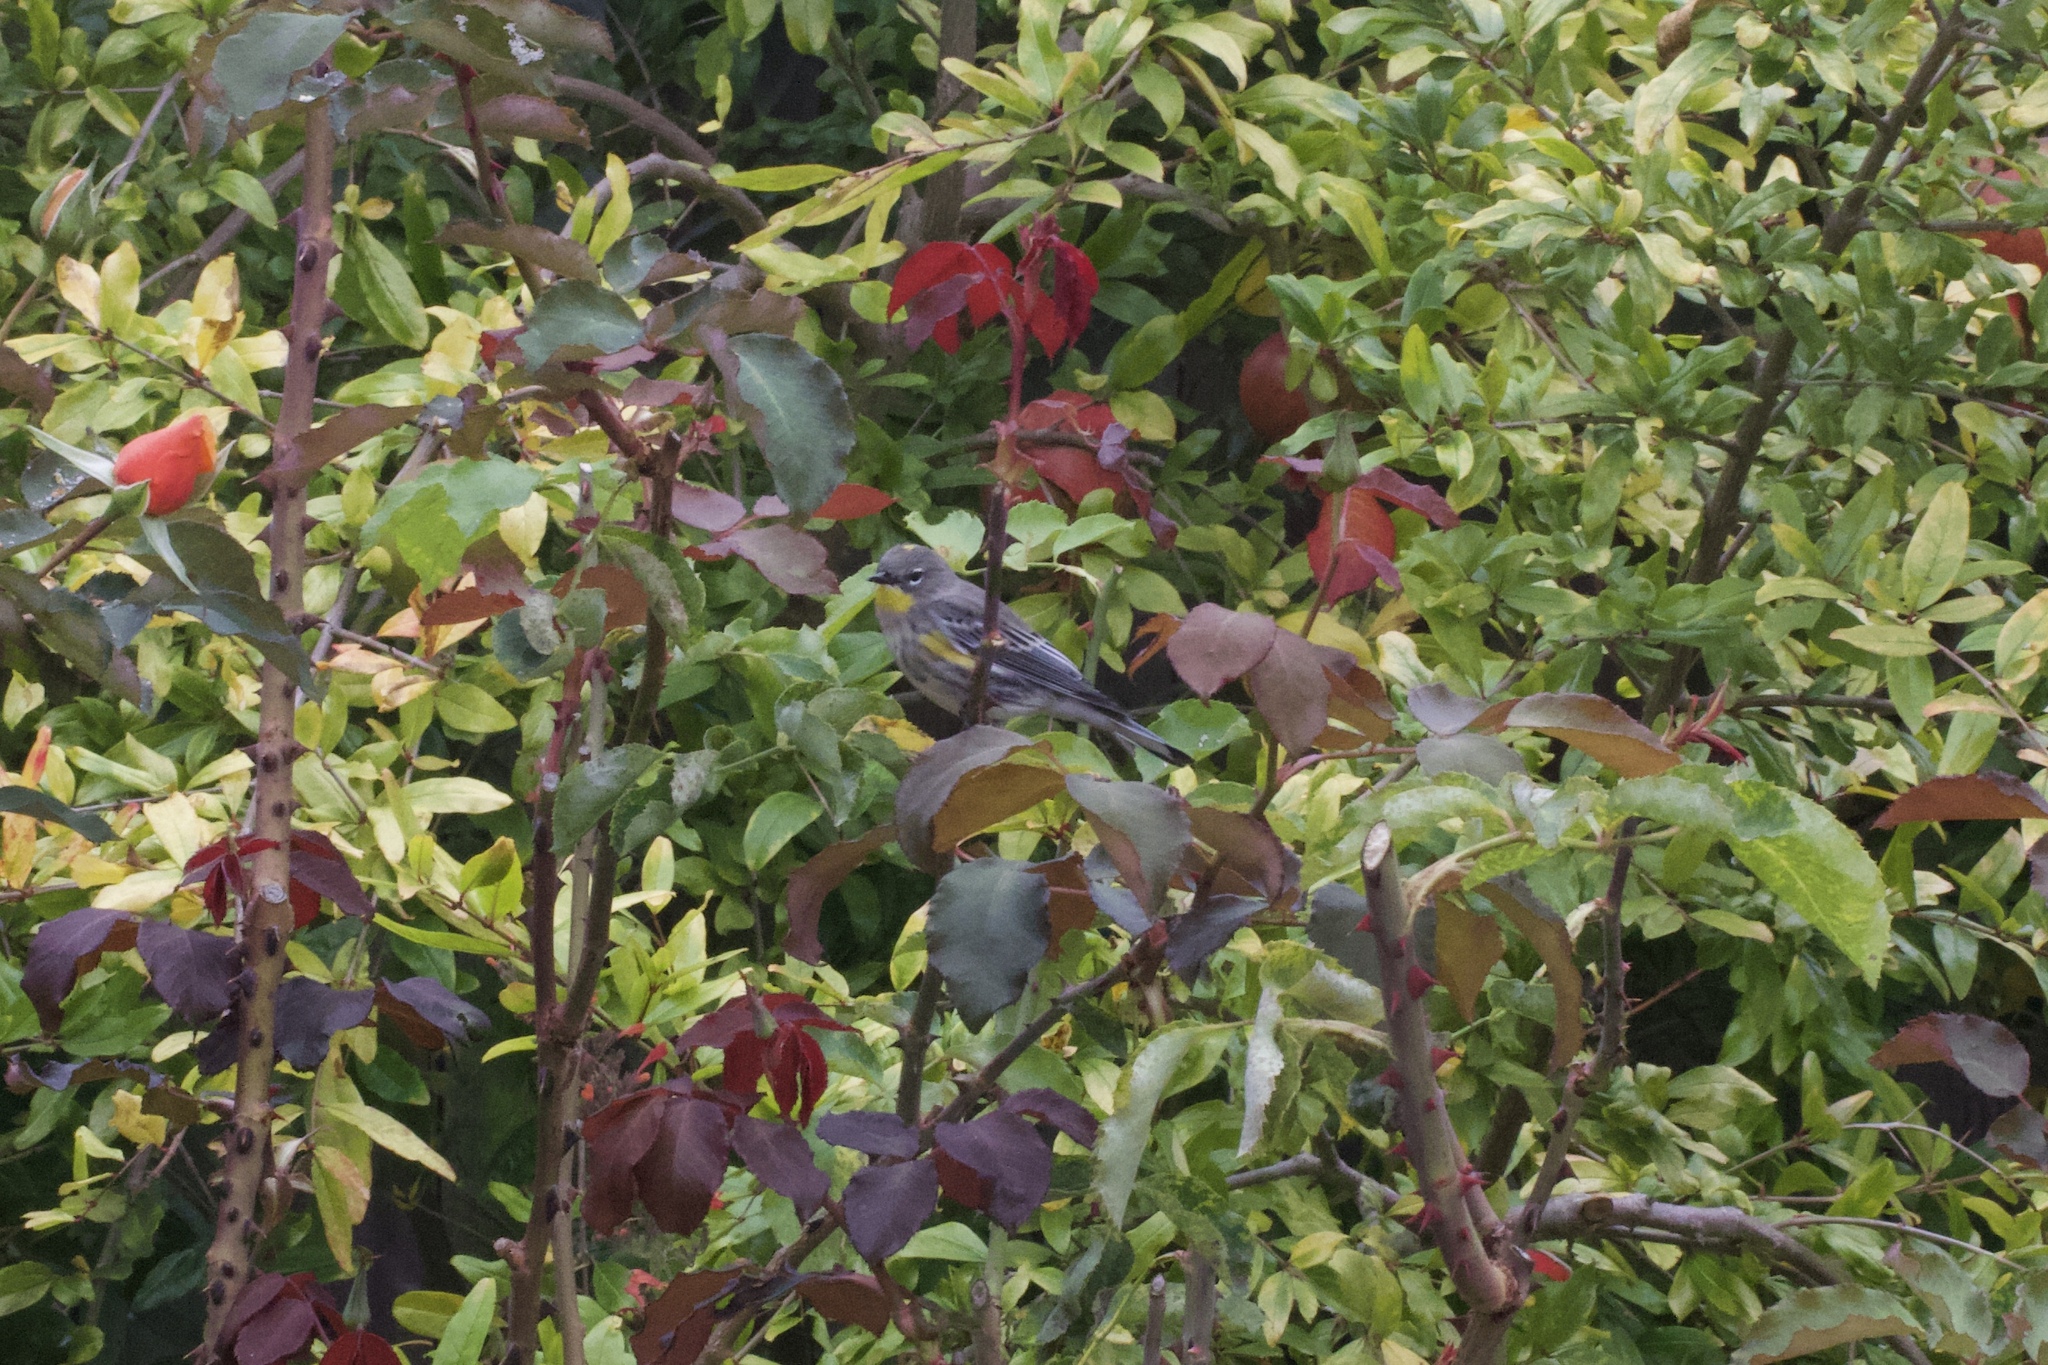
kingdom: Animalia
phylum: Chordata
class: Aves
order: Passeriformes
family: Parulidae
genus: Setophaga
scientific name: Setophaga coronata
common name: Myrtle warbler
